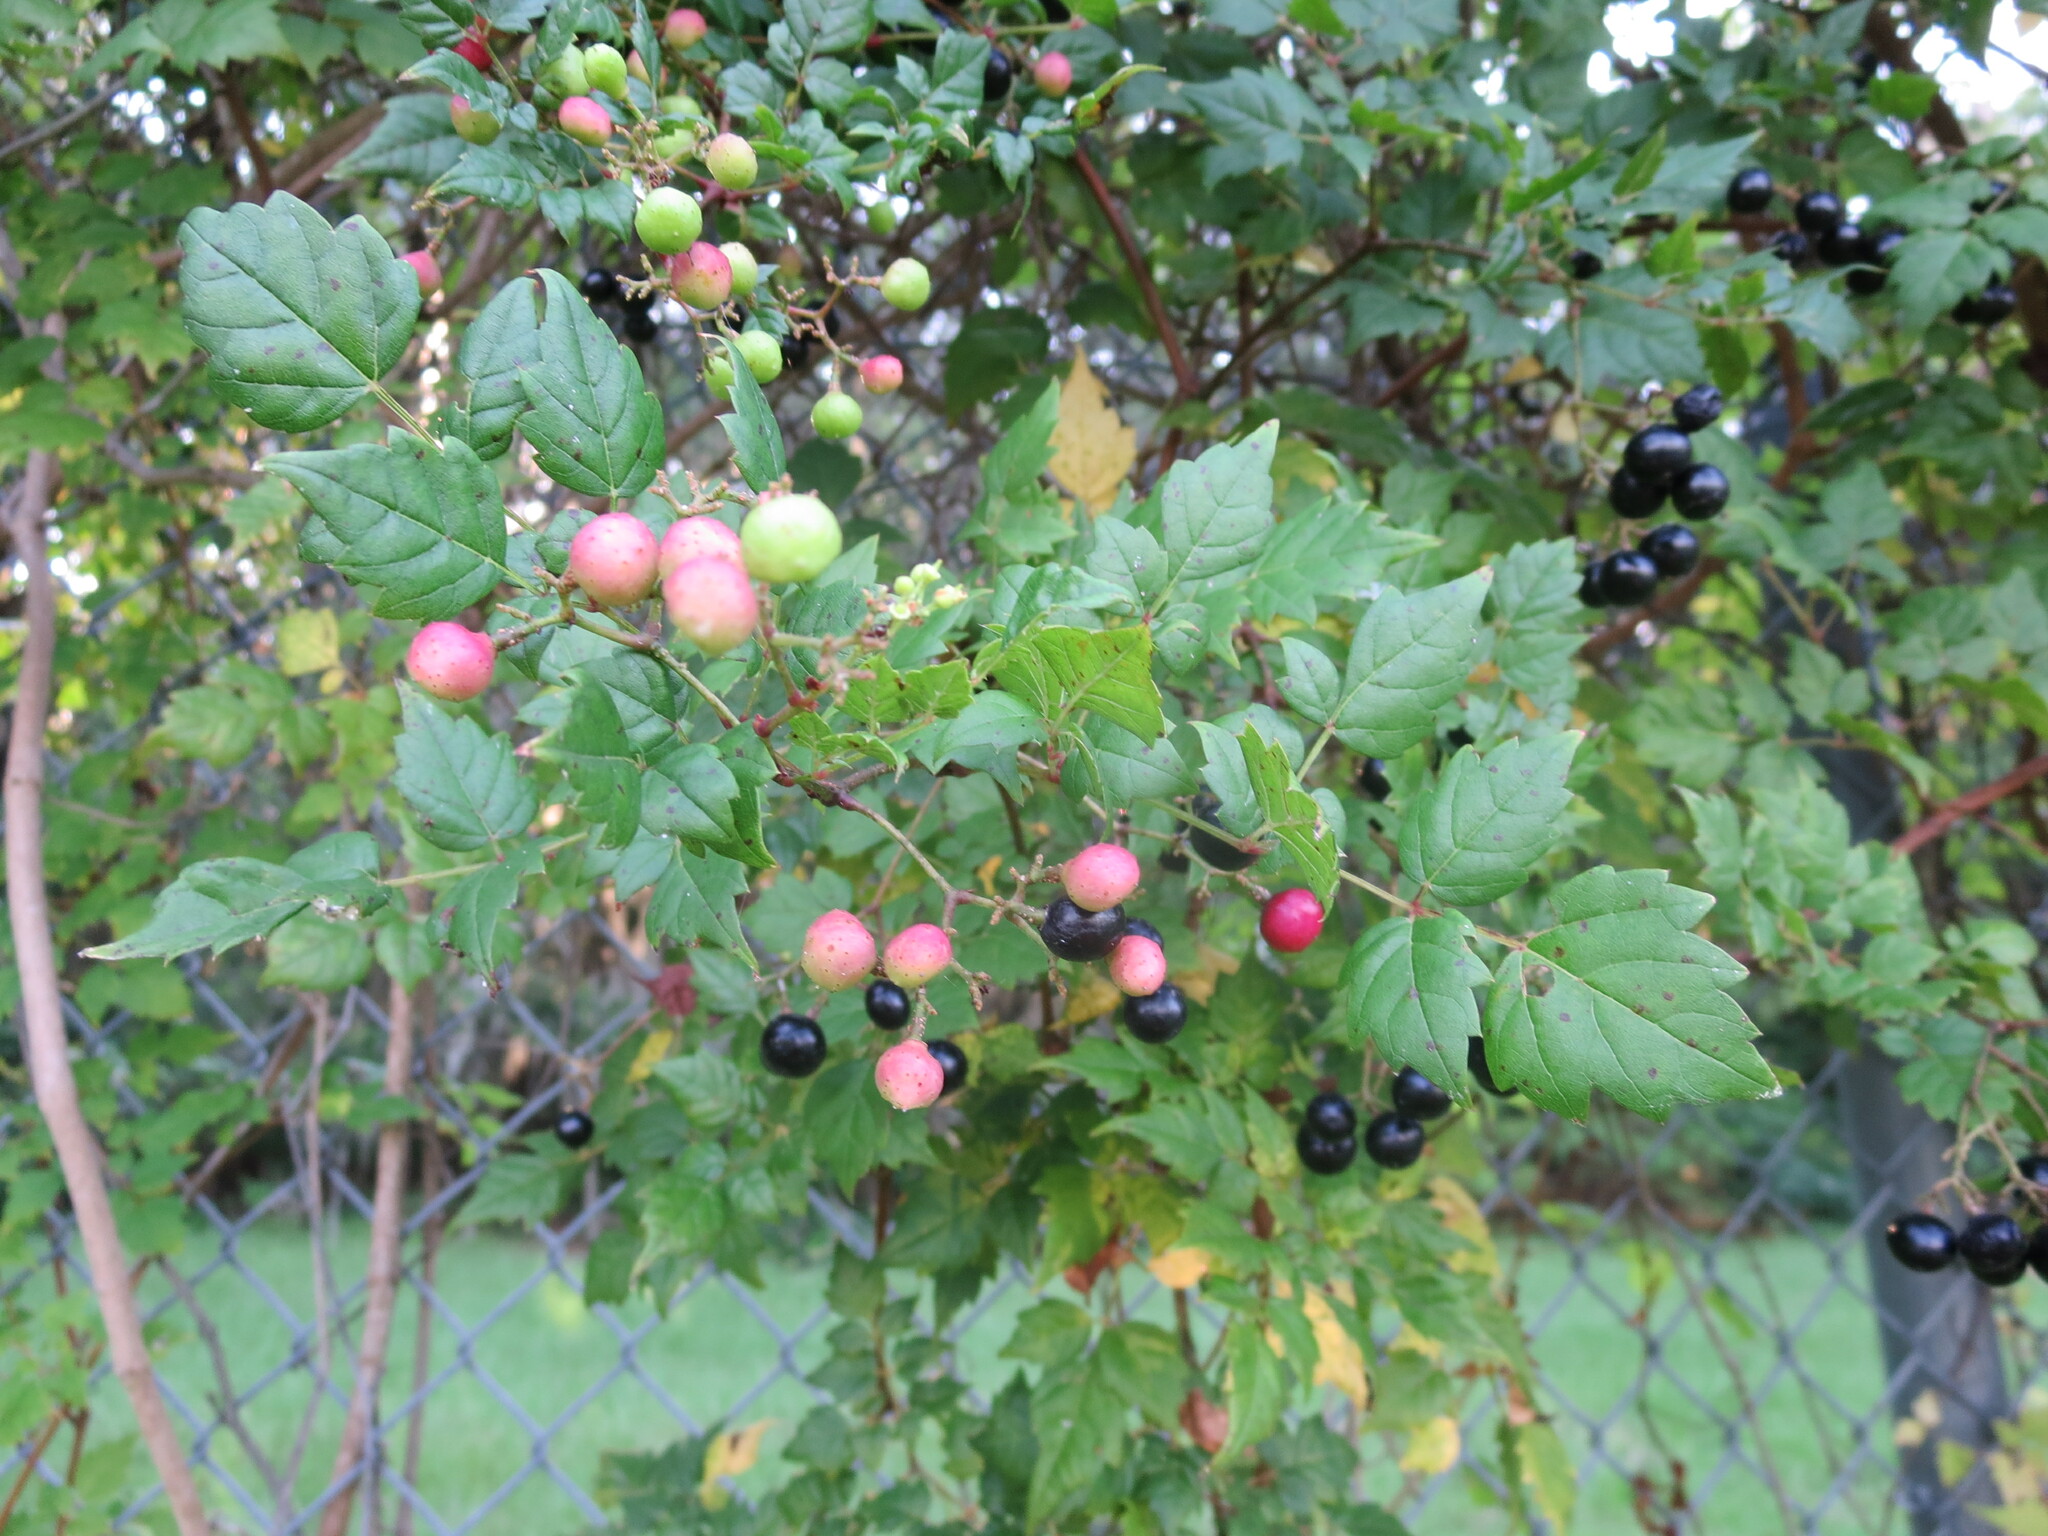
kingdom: Plantae
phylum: Tracheophyta
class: Magnoliopsida
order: Vitales
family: Vitaceae
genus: Nekemias
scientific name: Nekemias arborea
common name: Peppervine
